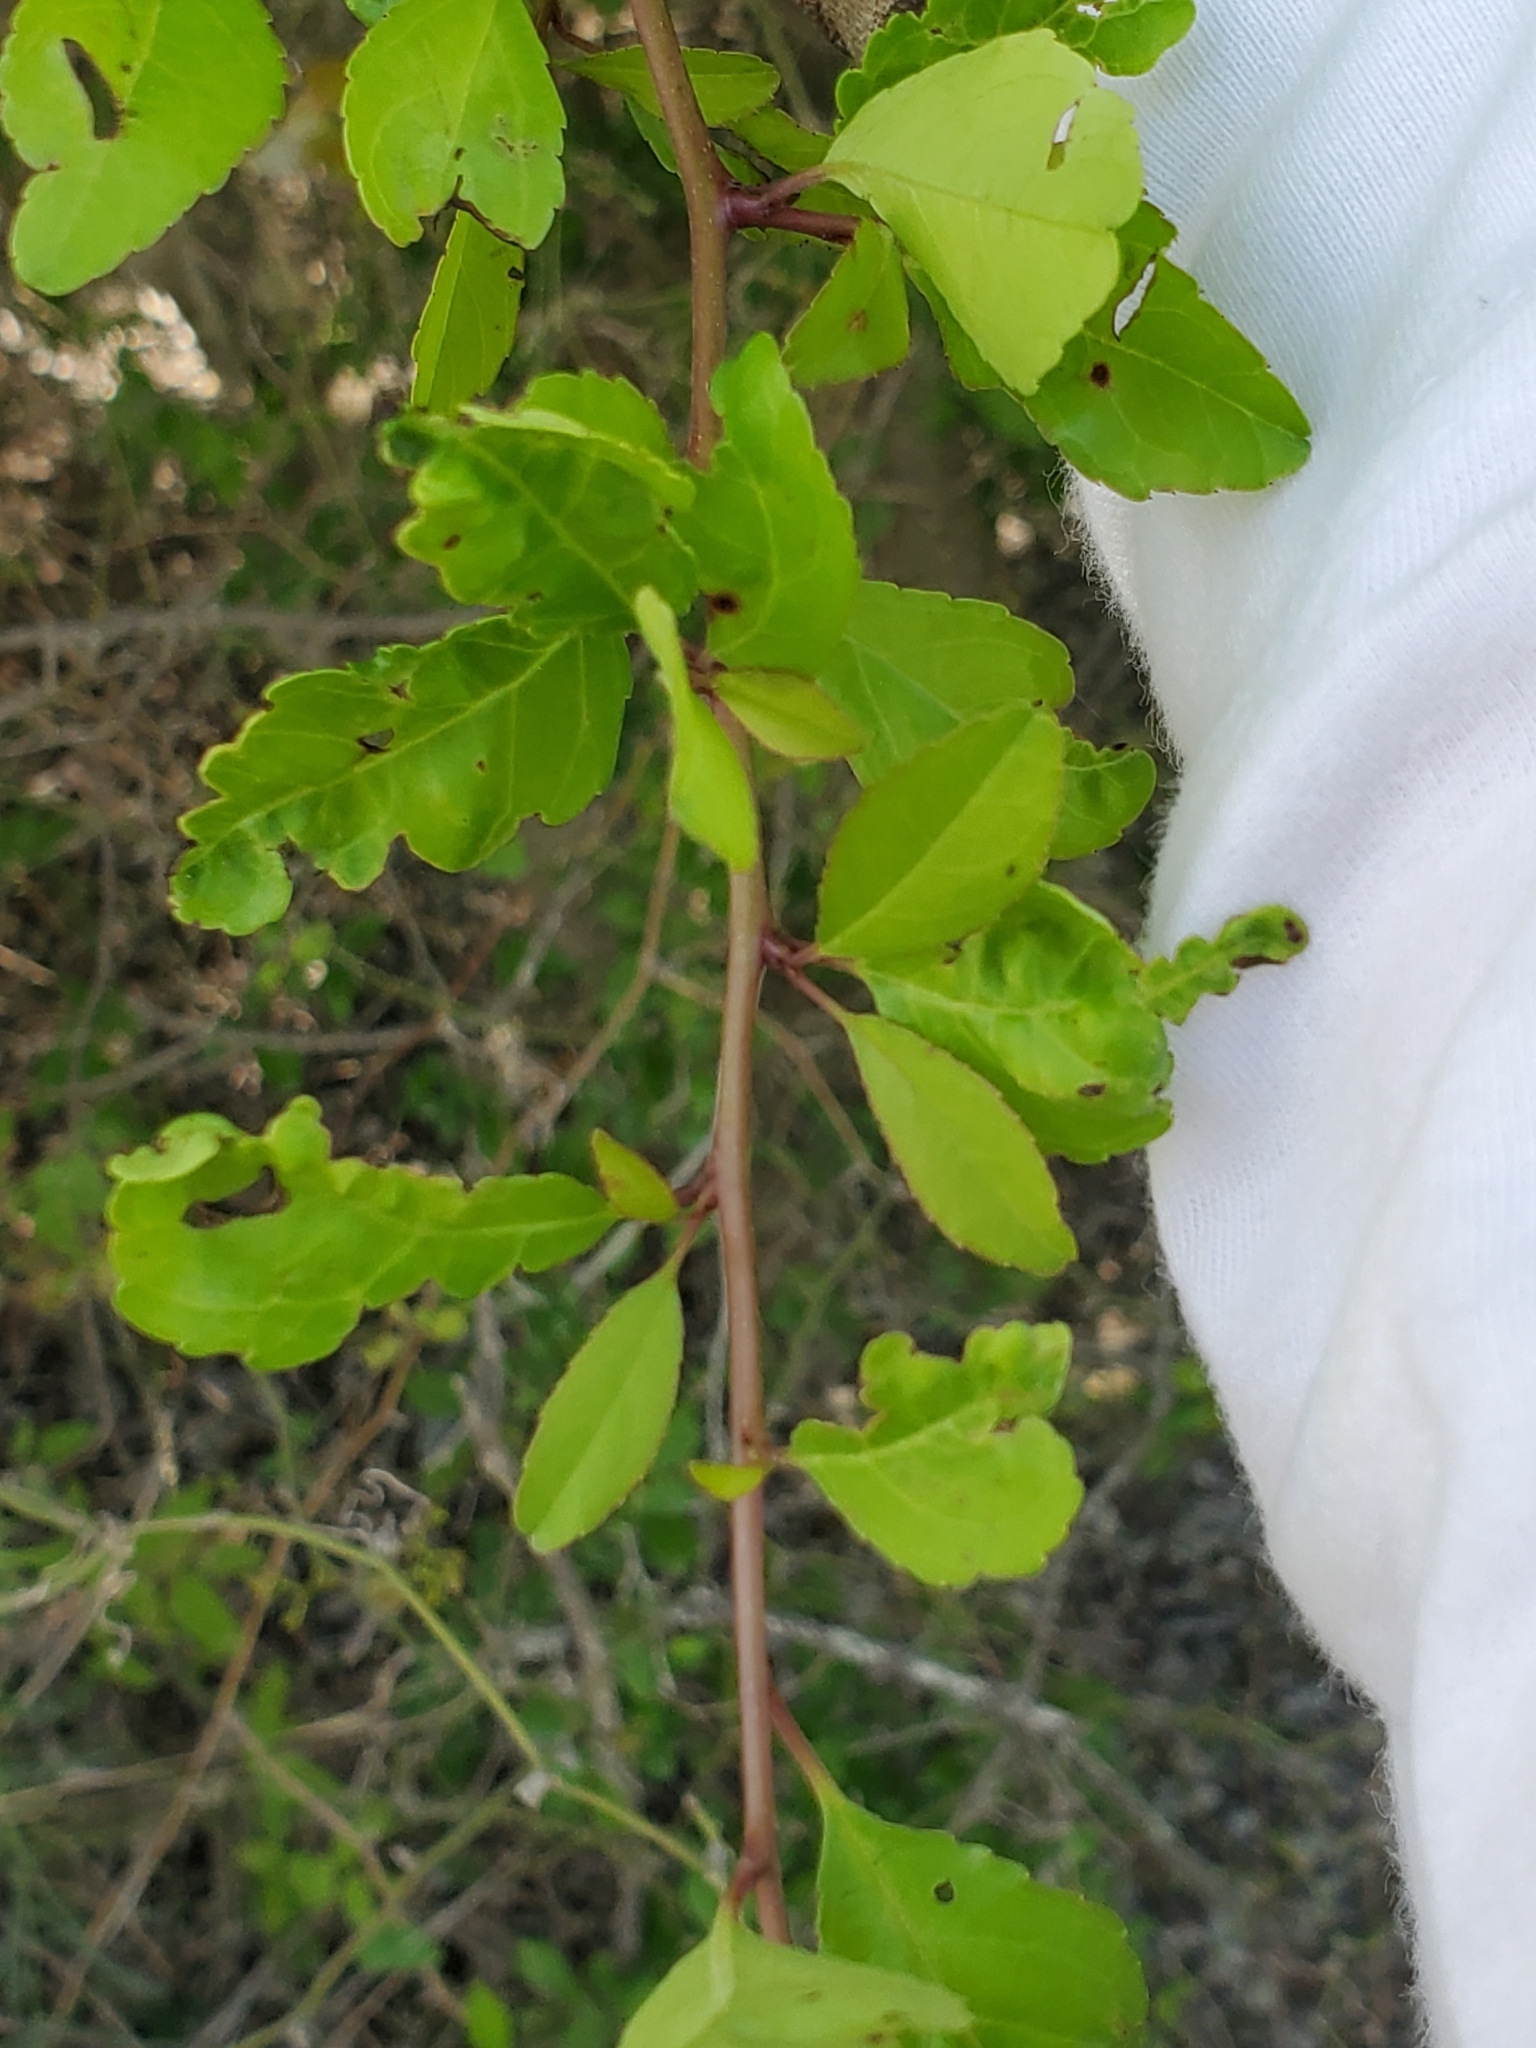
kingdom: Plantae
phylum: Tracheophyta
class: Magnoliopsida
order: Aquifoliales
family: Aquifoliaceae
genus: Ilex
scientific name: Ilex decidua
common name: Possum-haw
